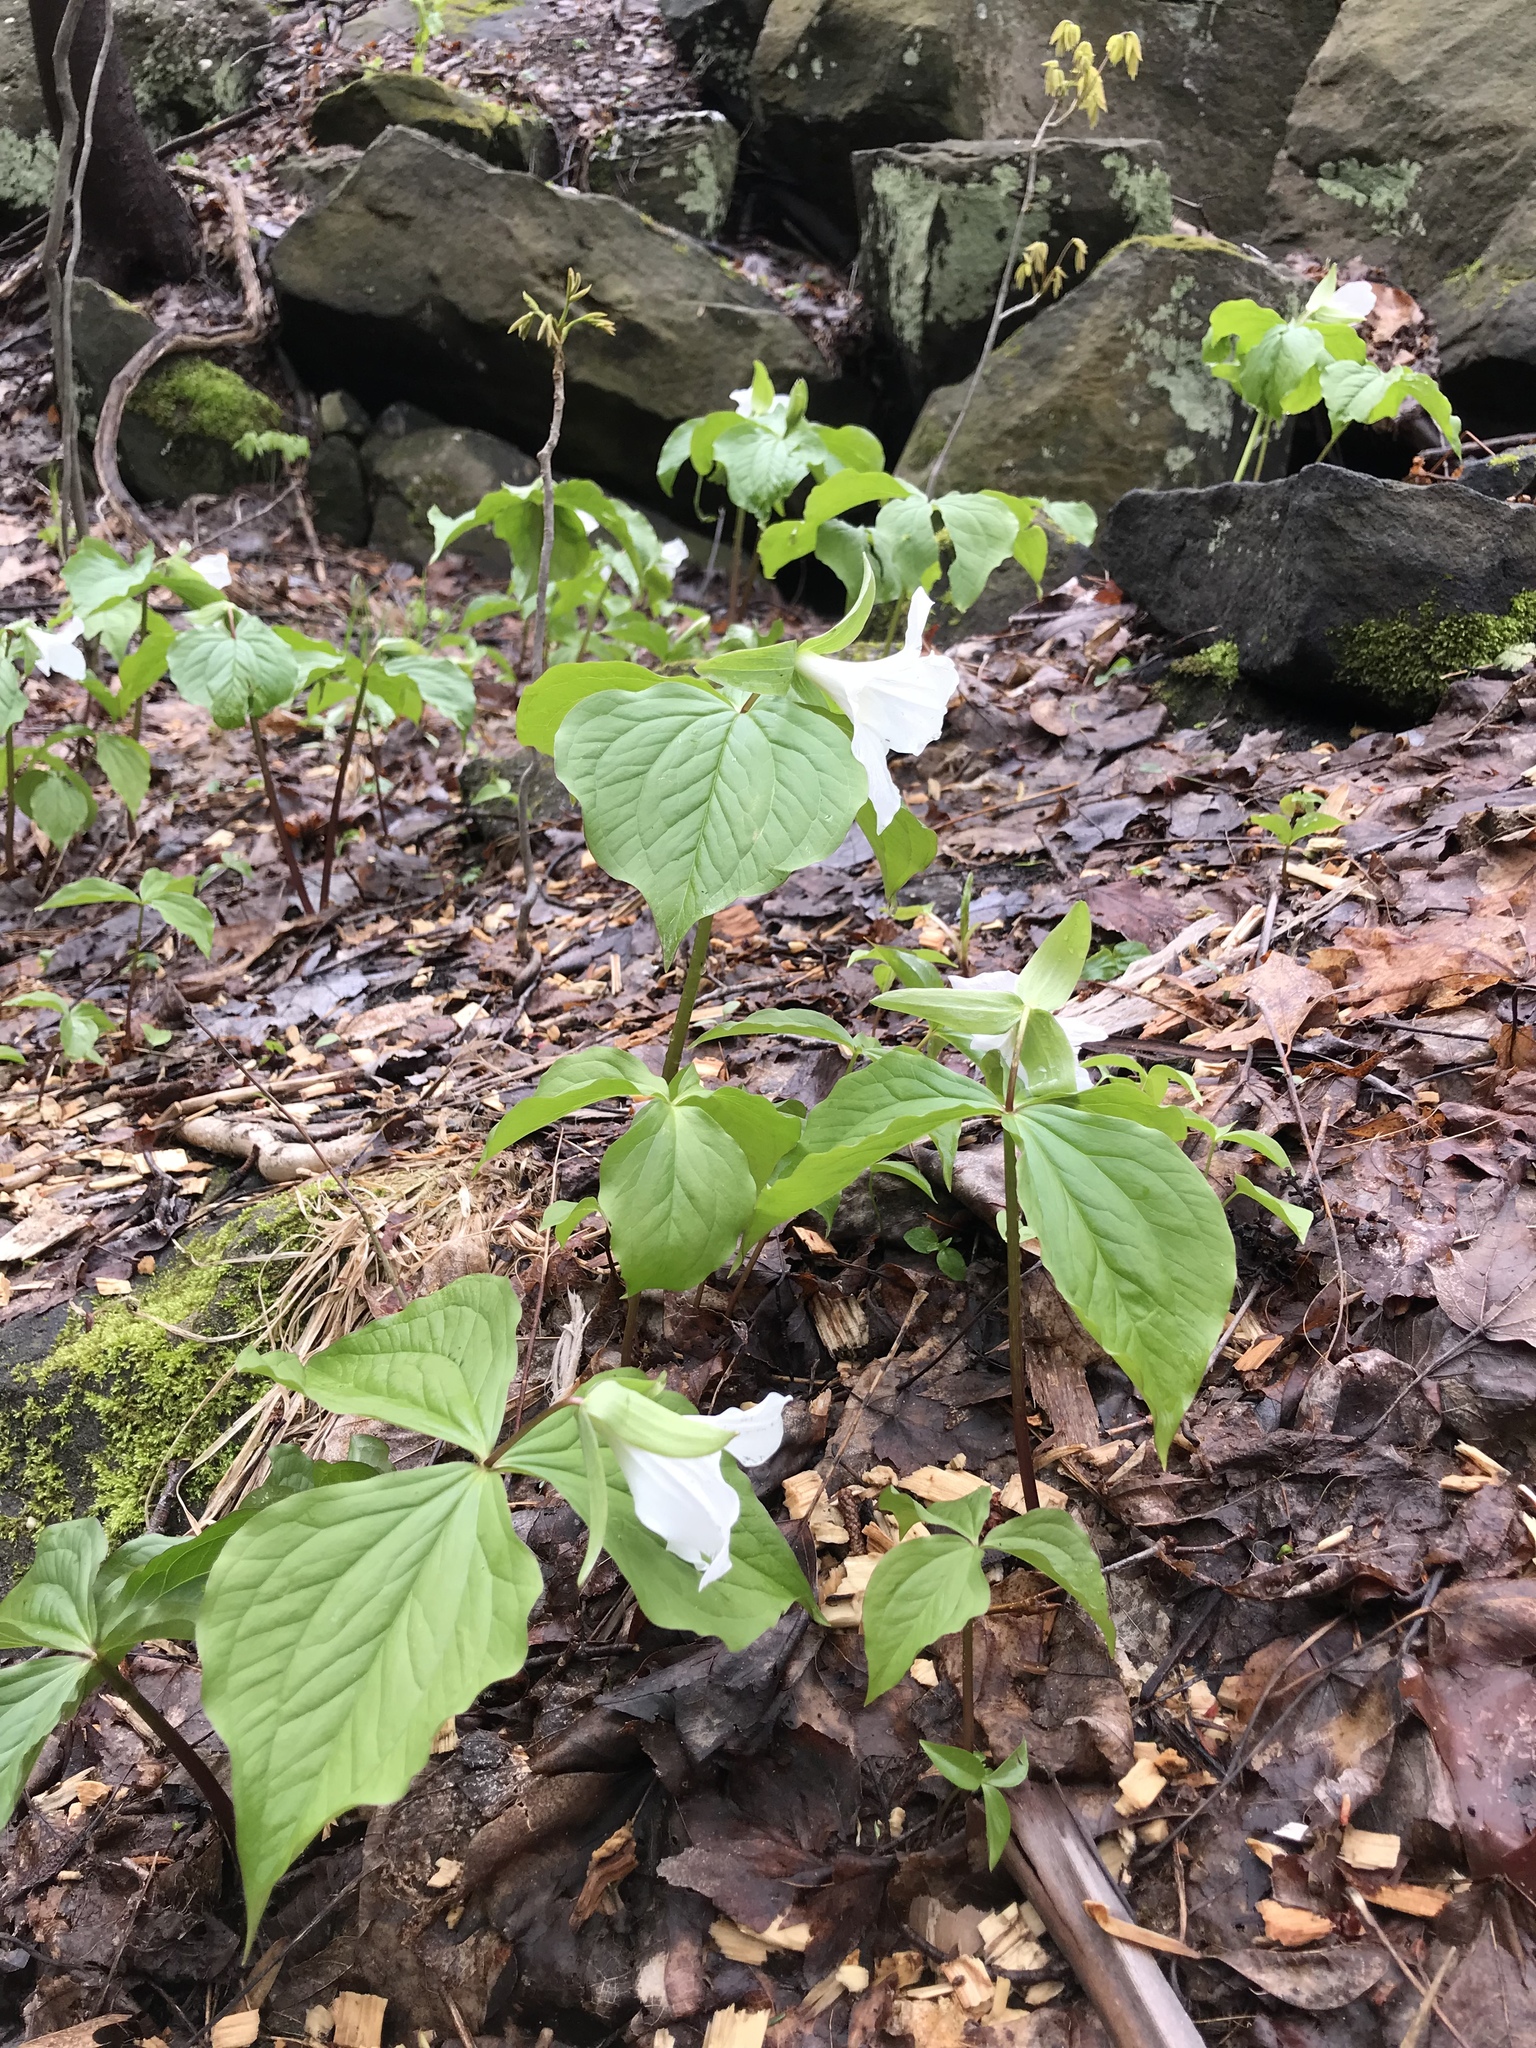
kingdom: Plantae
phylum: Tracheophyta
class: Liliopsida
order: Liliales
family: Melanthiaceae
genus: Trillium
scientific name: Trillium grandiflorum
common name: Great white trillium
